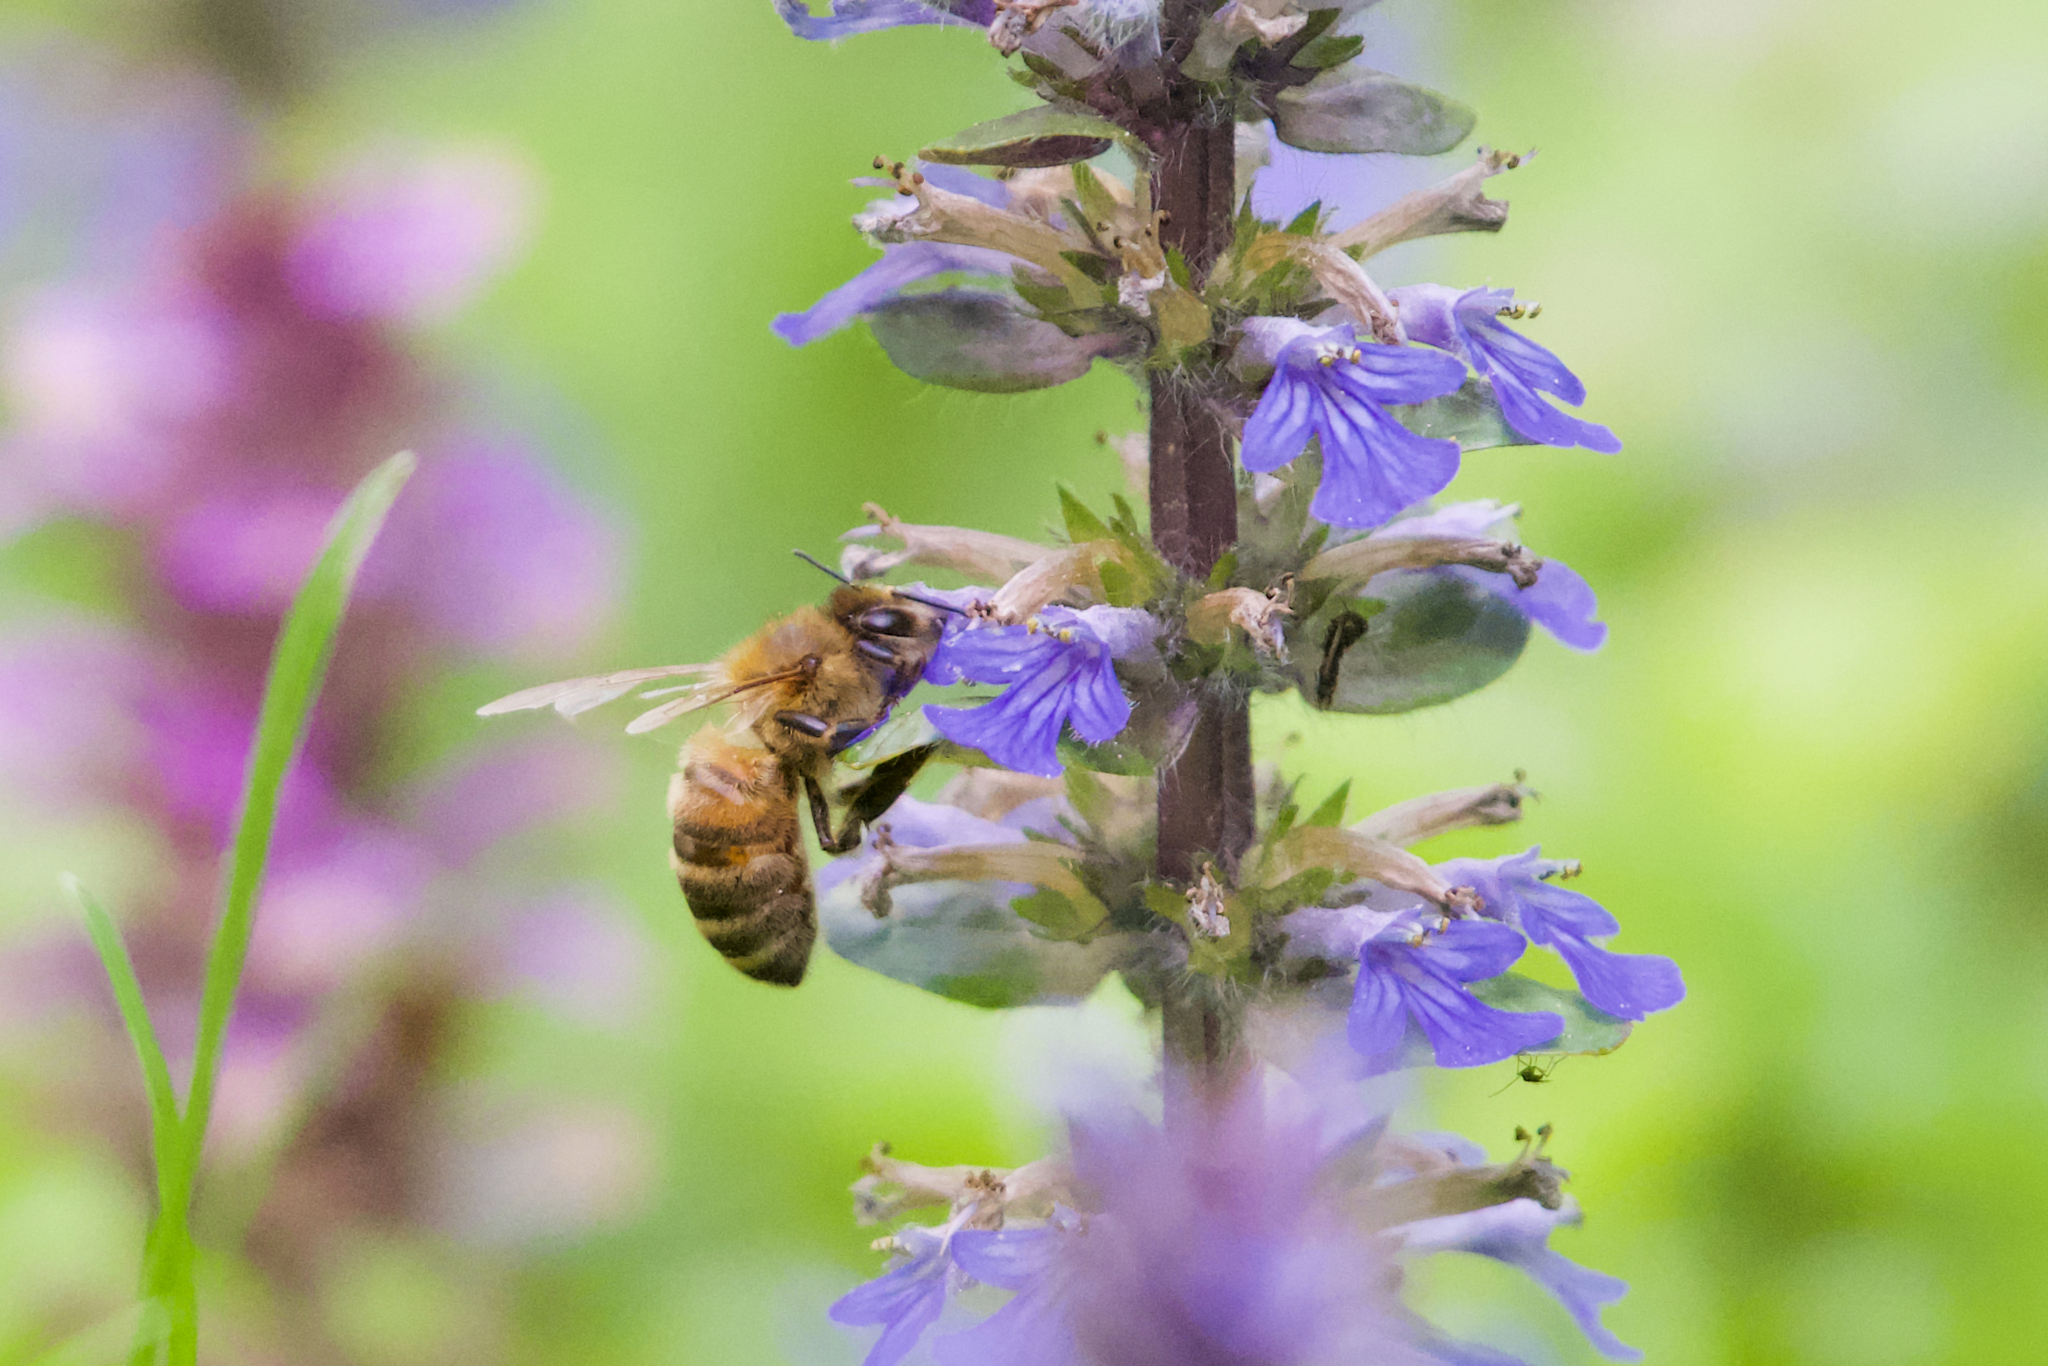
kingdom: Animalia
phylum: Arthropoda
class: Insecta
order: Hymenoptera
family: Apidae
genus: Apis
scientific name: Apis mellifera
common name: Honey bee
